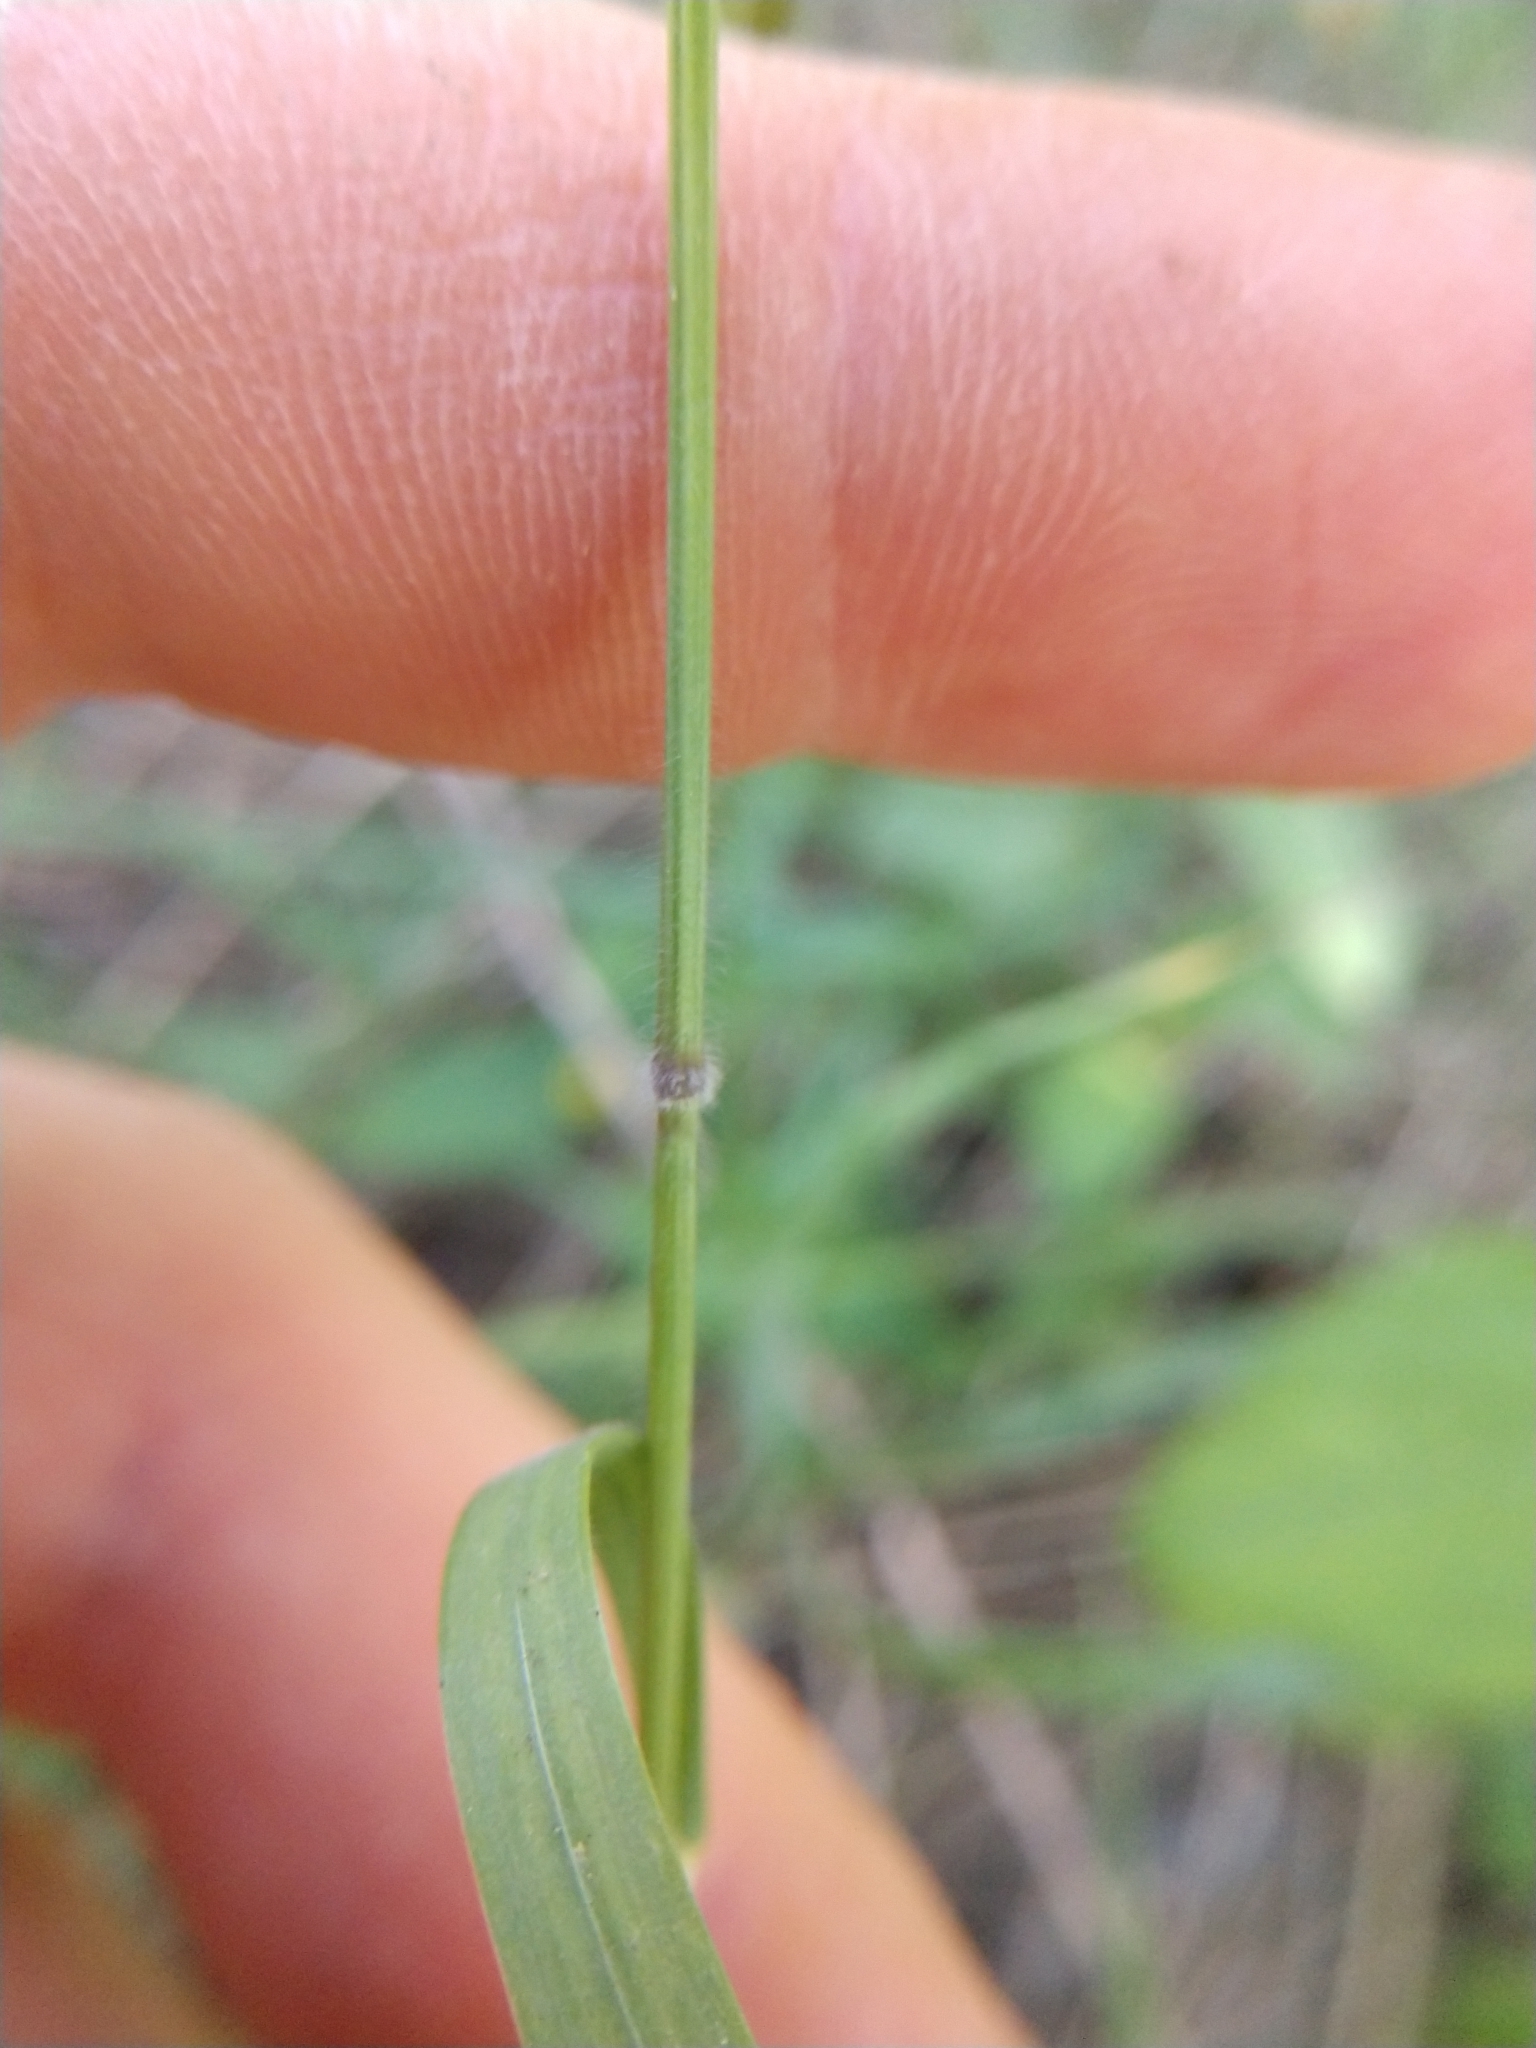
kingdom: Plantae
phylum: Tracheophyta
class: Liliopsida
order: Poales
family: Poaceae
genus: Bromus
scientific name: Bromus texensis
